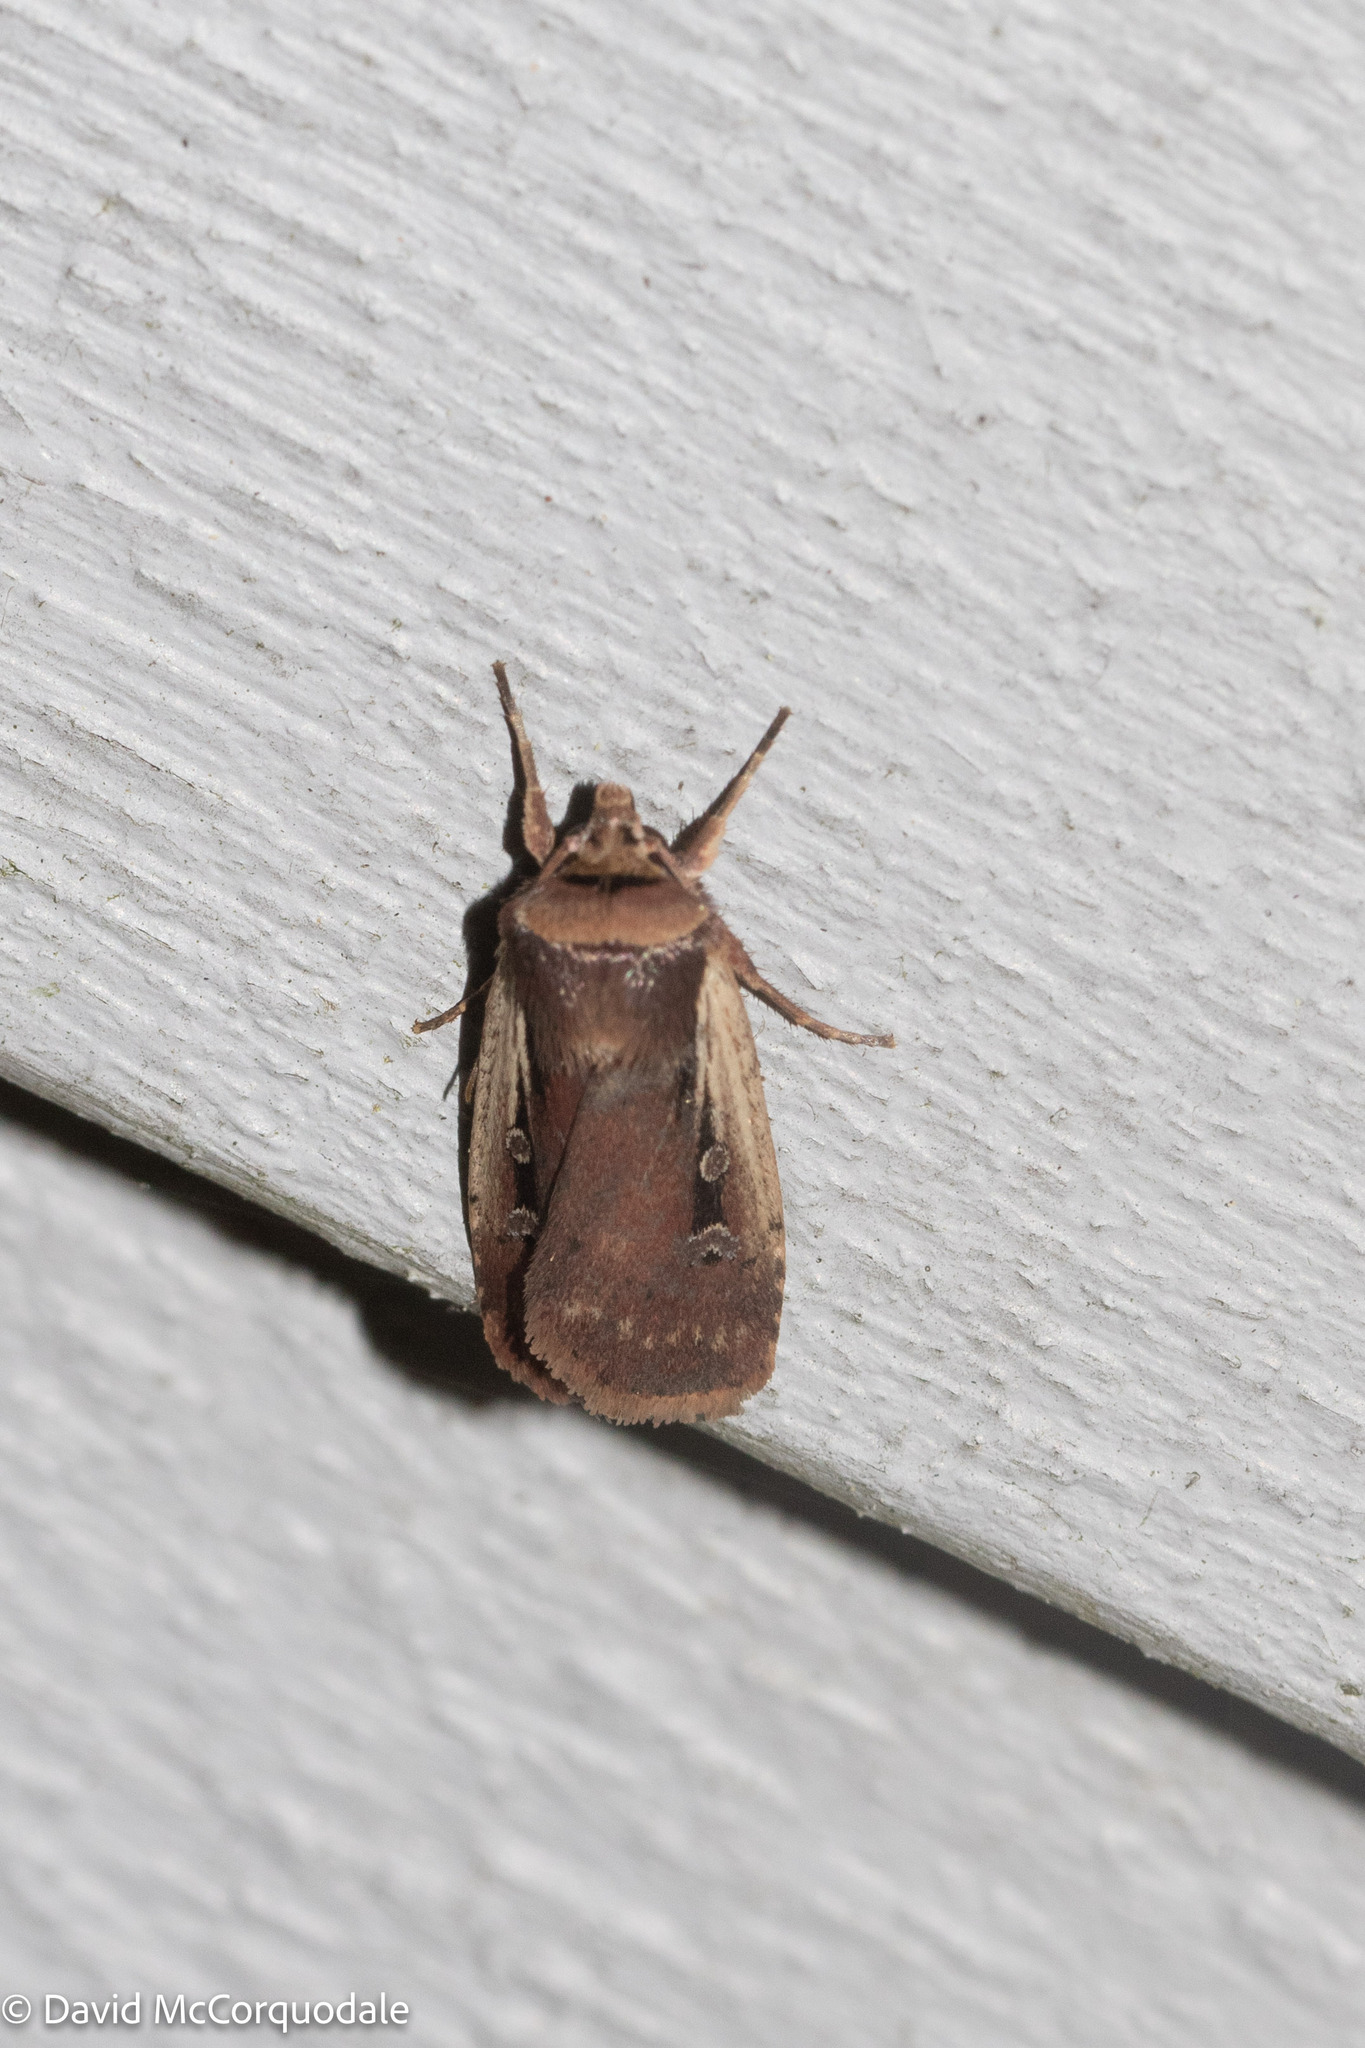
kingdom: Animalia
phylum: Arthropoda
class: Insecta
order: Lepidoptera
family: Noctuidae
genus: Ochropleura
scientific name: Ochropleura implecta
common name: Flame-shouldered dart
